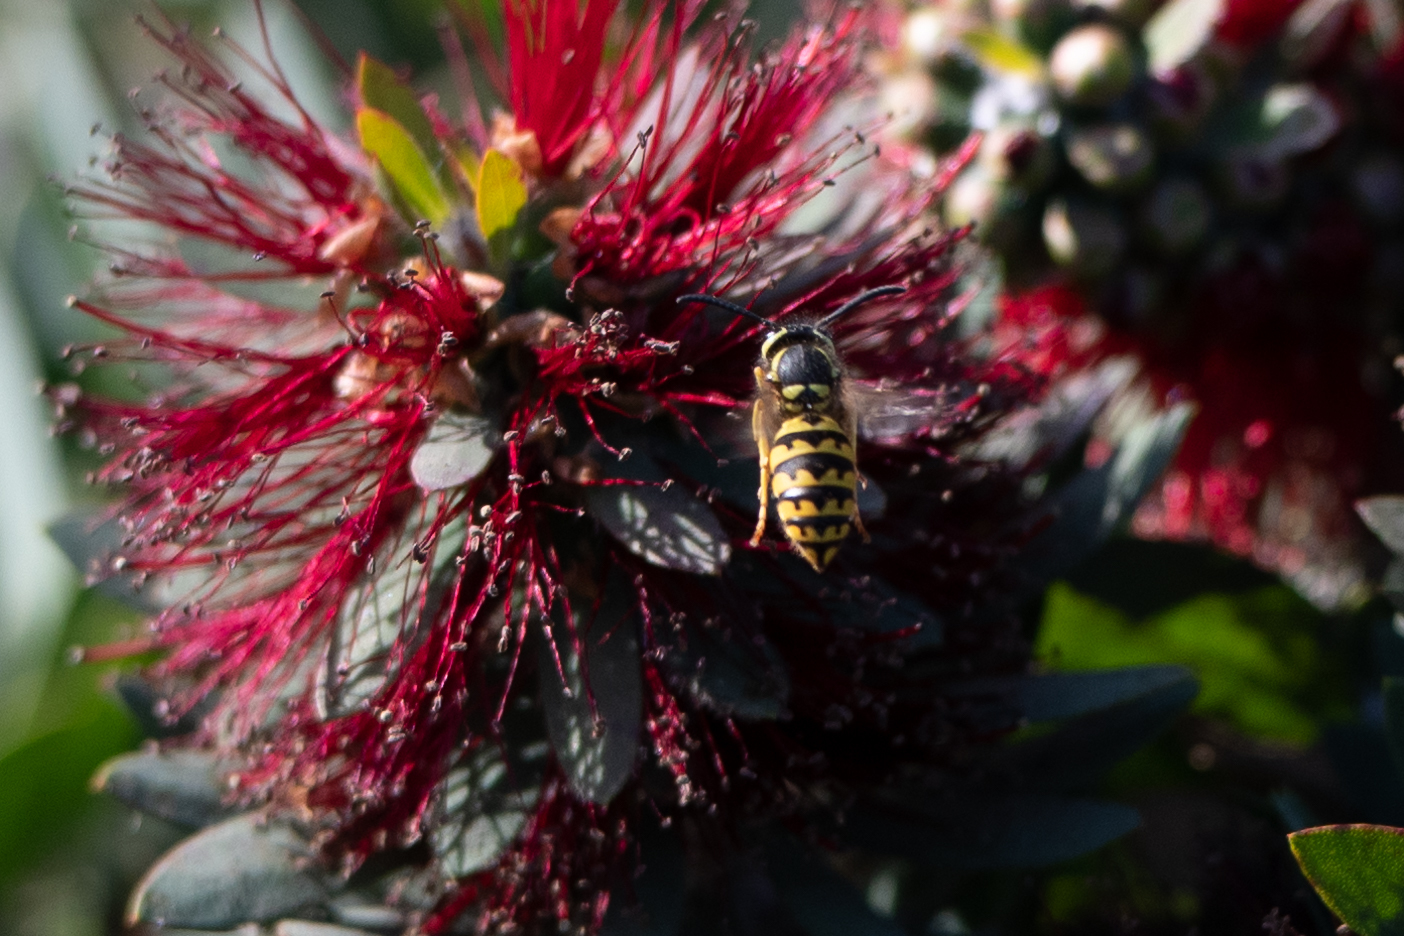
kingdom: Animalia
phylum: Arthropoda
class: Insecta
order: Hymenoptera
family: Vespidae
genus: Vespula
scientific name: Vespula pensylvanica
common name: Western yellowjacket
